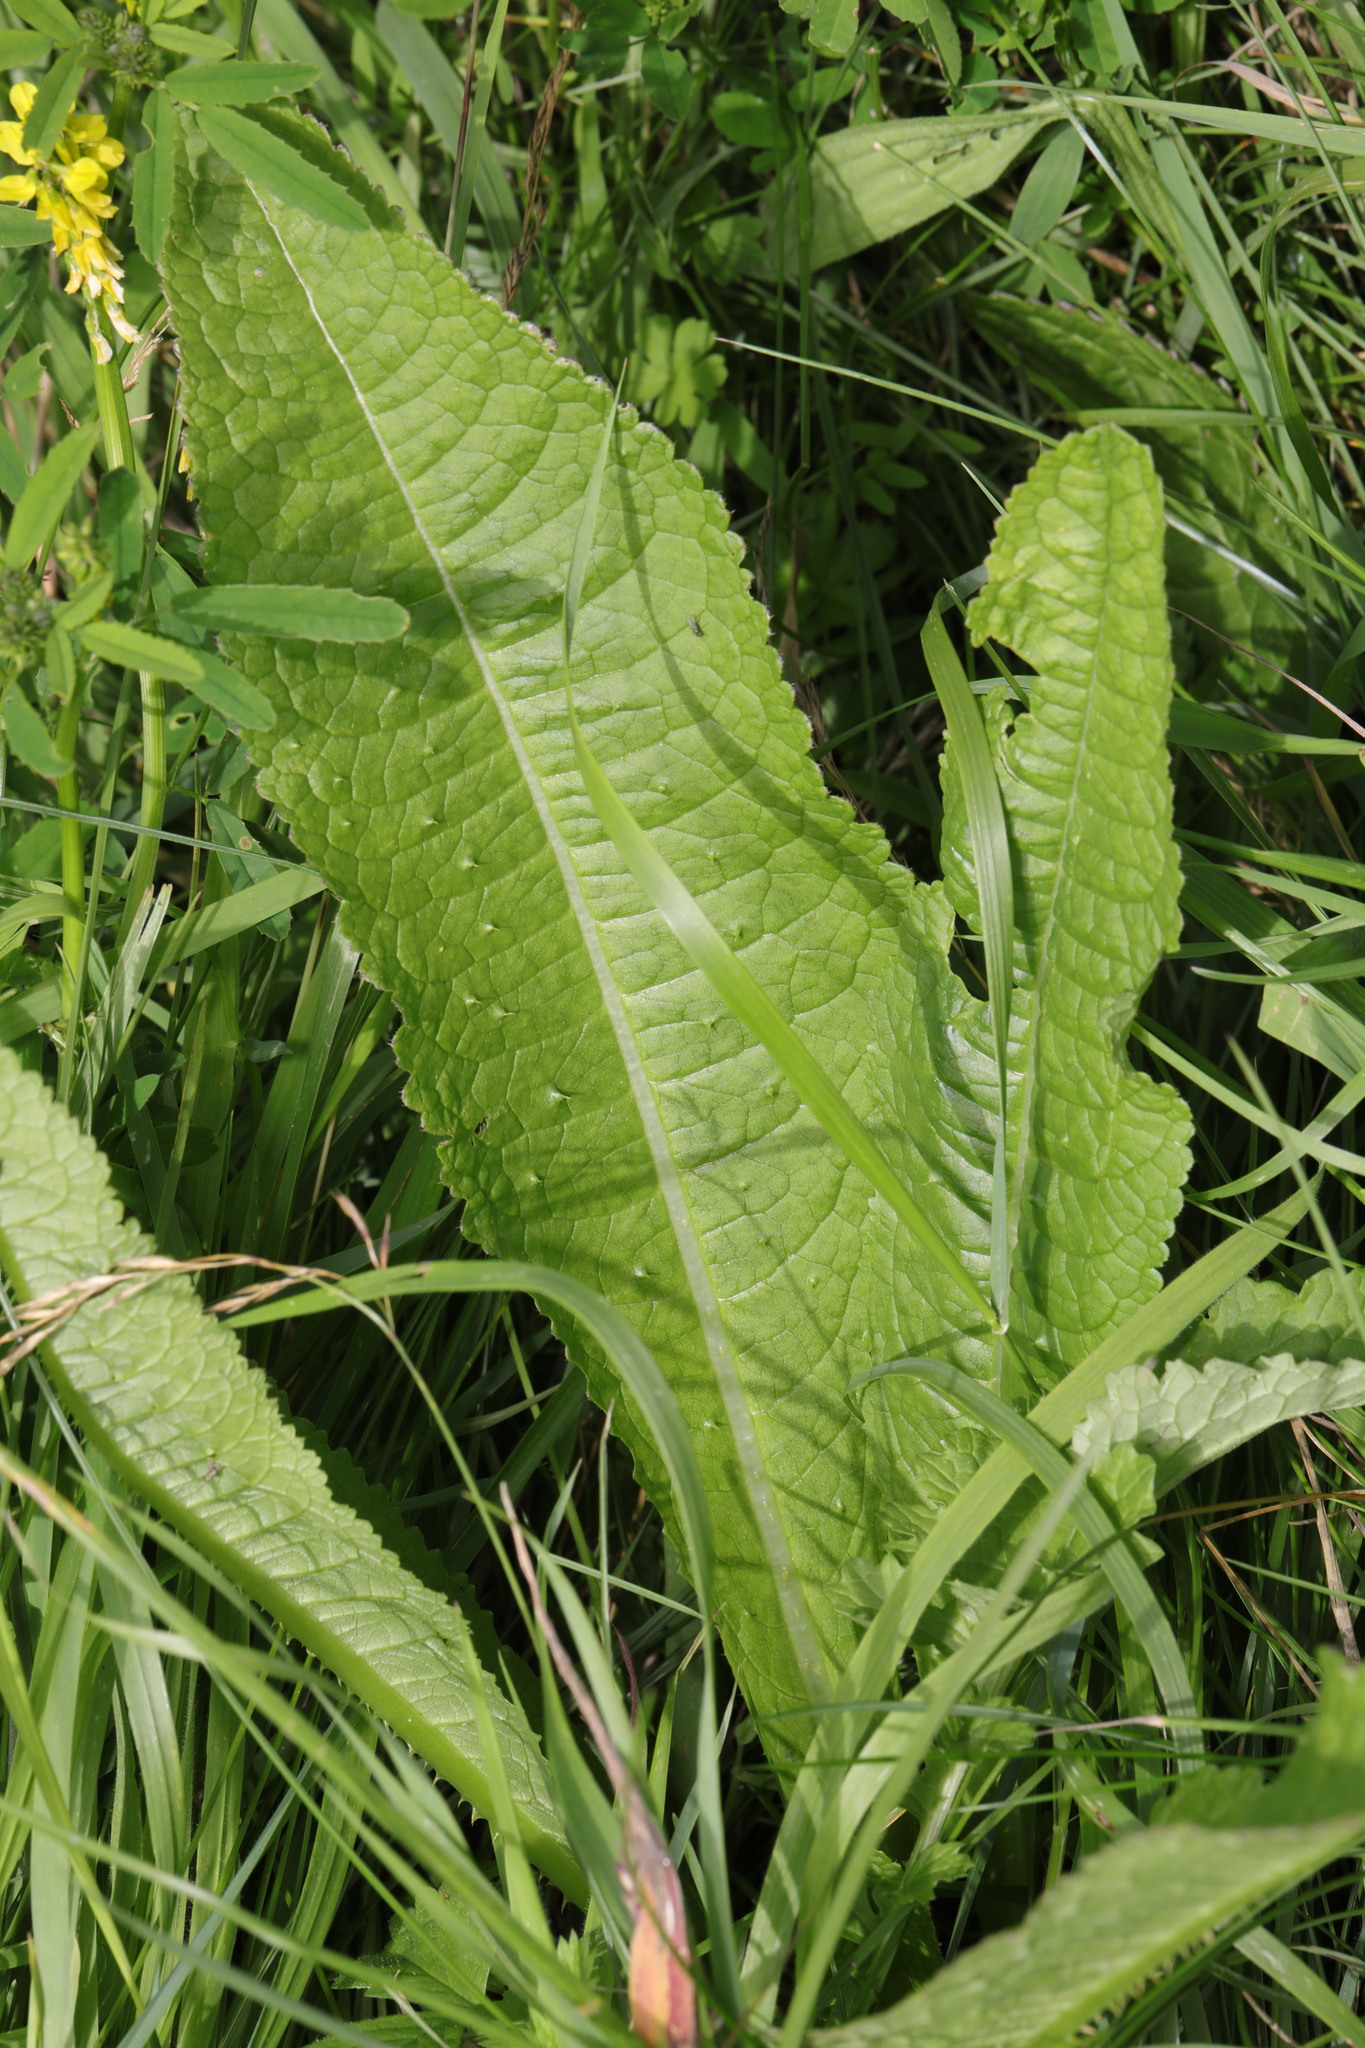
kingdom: Plantae
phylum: Tracheophyta
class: Magnoliopsida
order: Dipsacales
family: Caprifoliaceae
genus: Dipsacus
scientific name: Dipsacus fullonum
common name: Teasel
